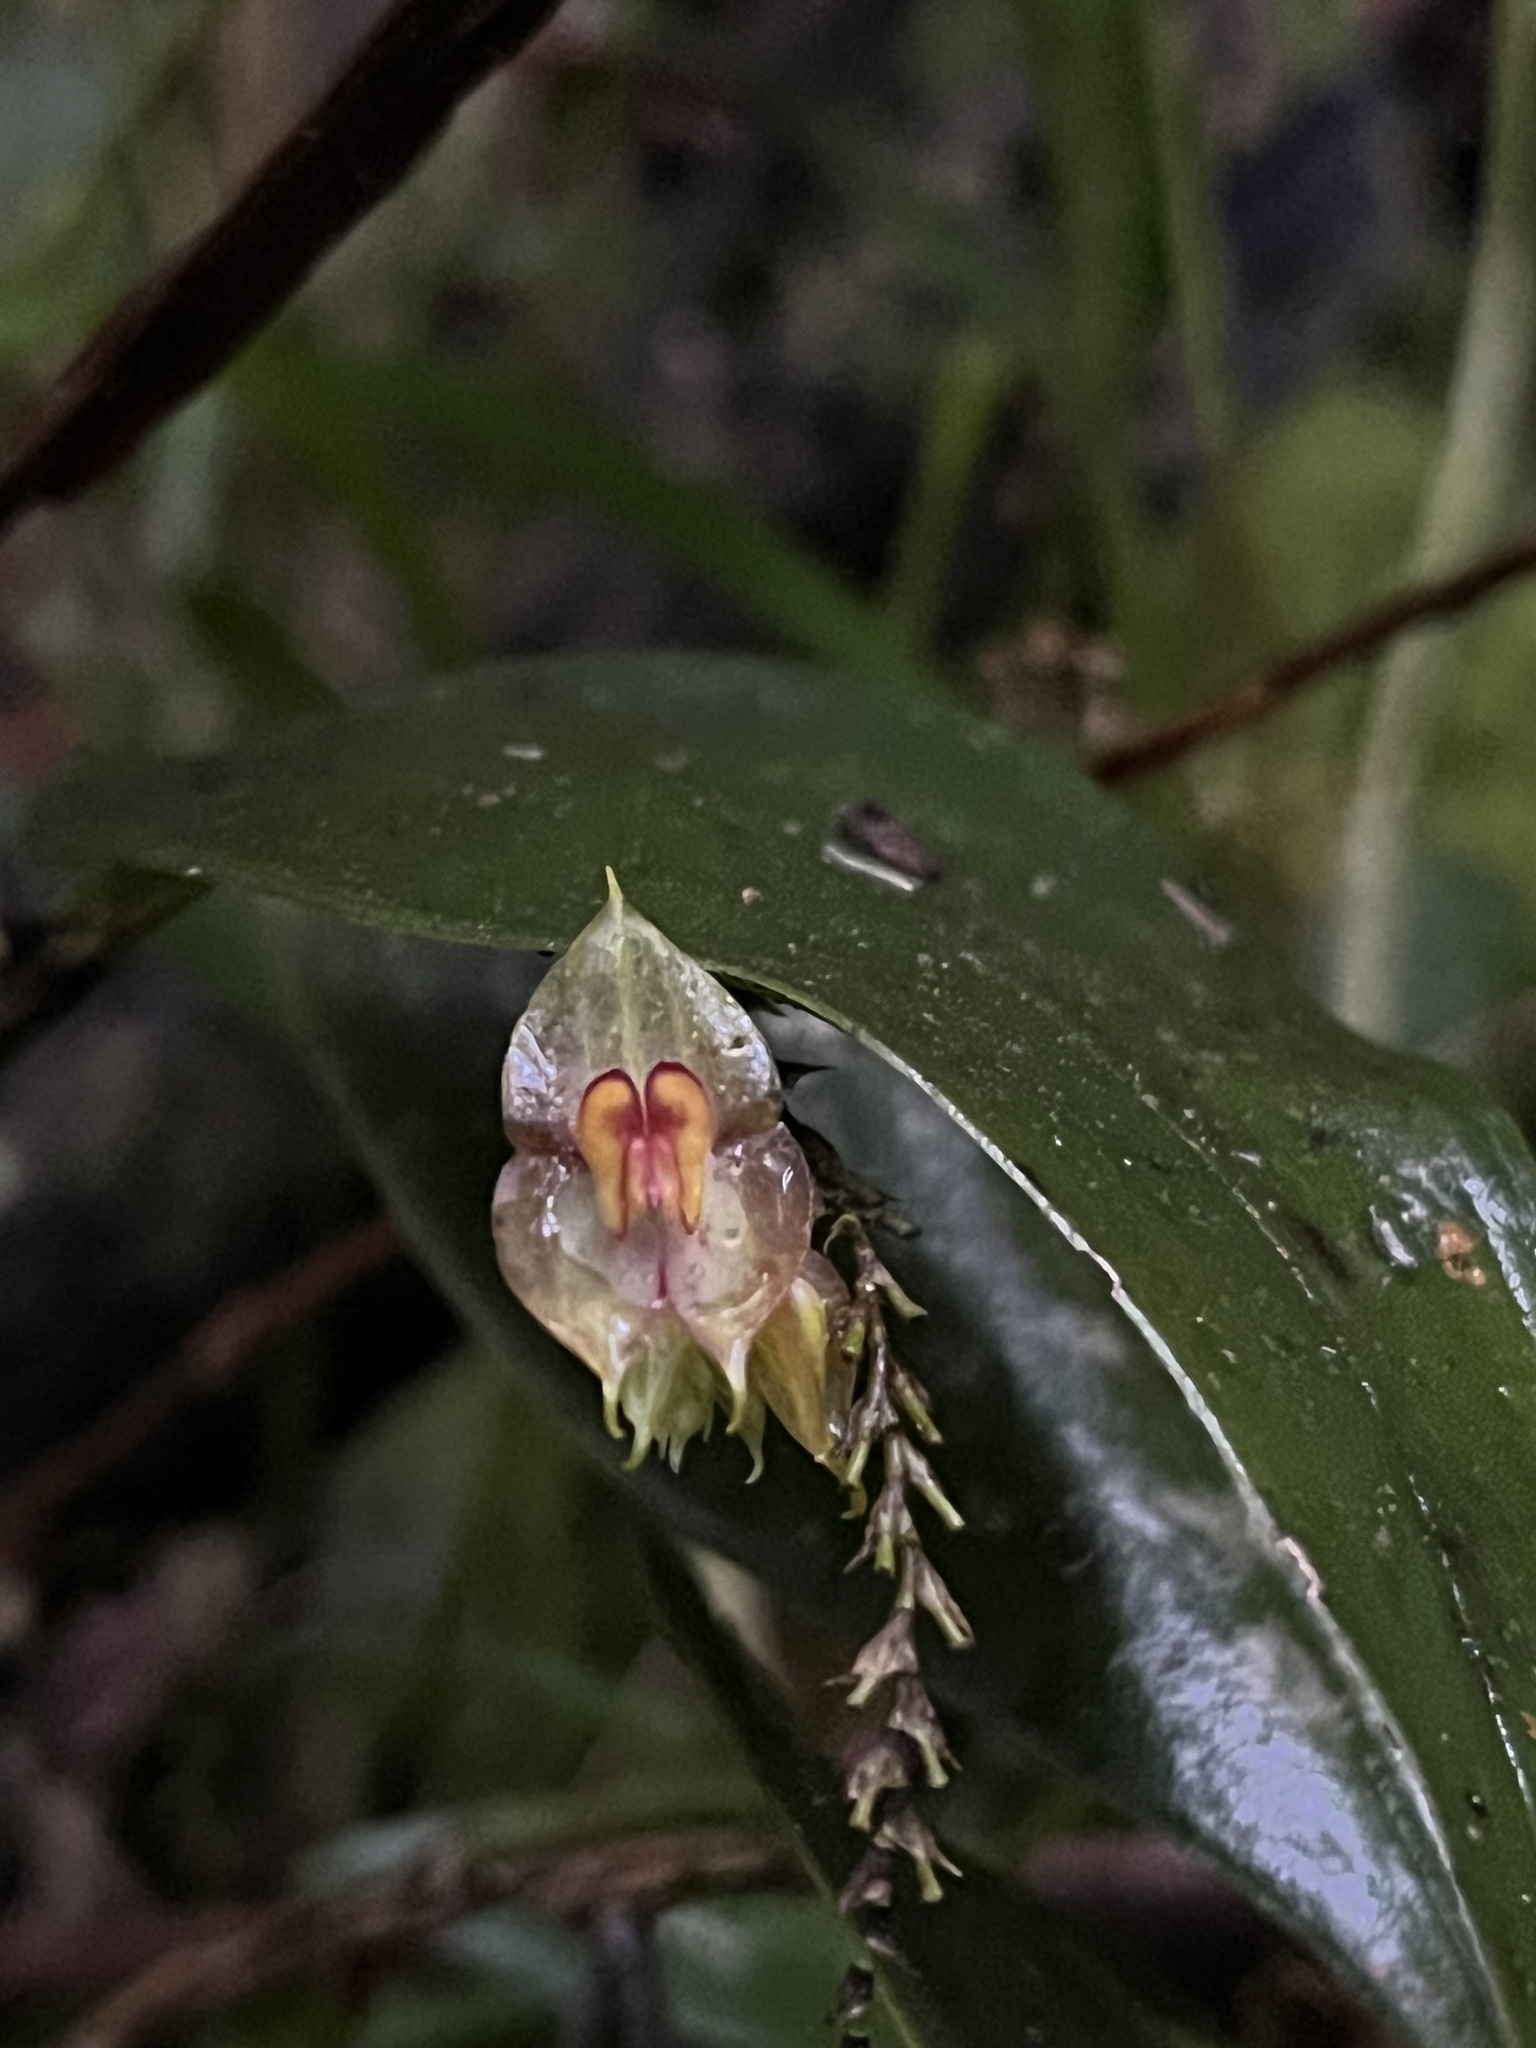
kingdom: Plantae
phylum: Tracheophyta
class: Liliopsida
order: Asparagales
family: Orchidaceae
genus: Lepanthes
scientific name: Lepanthes caudatisepala
